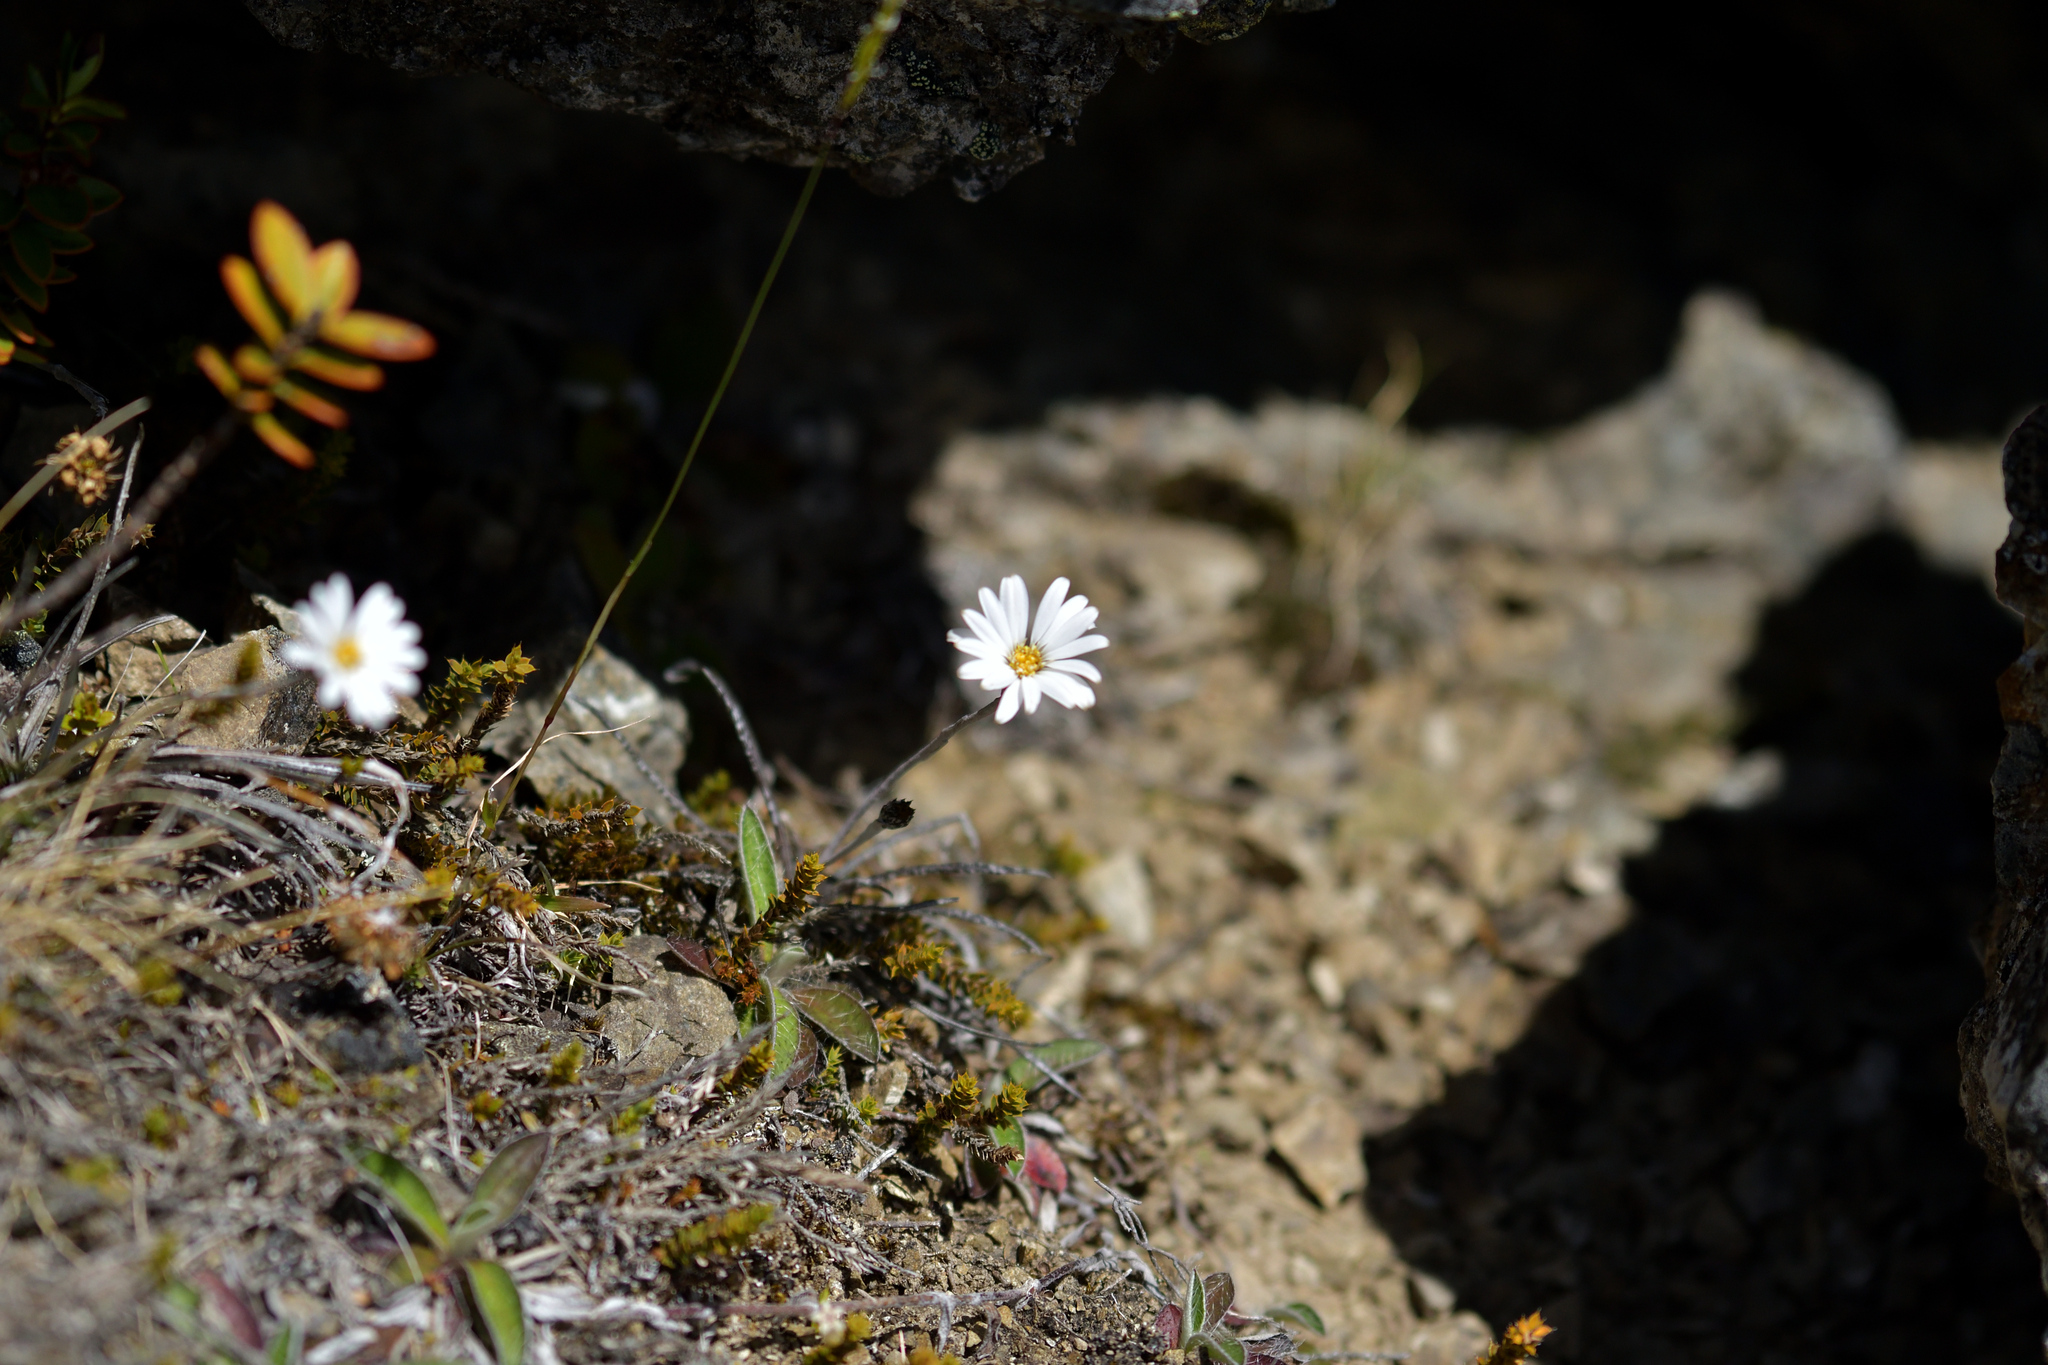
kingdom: Plantae
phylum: Tracheophyta
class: Magnoliopsida
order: Asterales
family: Asteraceae
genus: Celmisia
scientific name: Celmisia gracilenta
